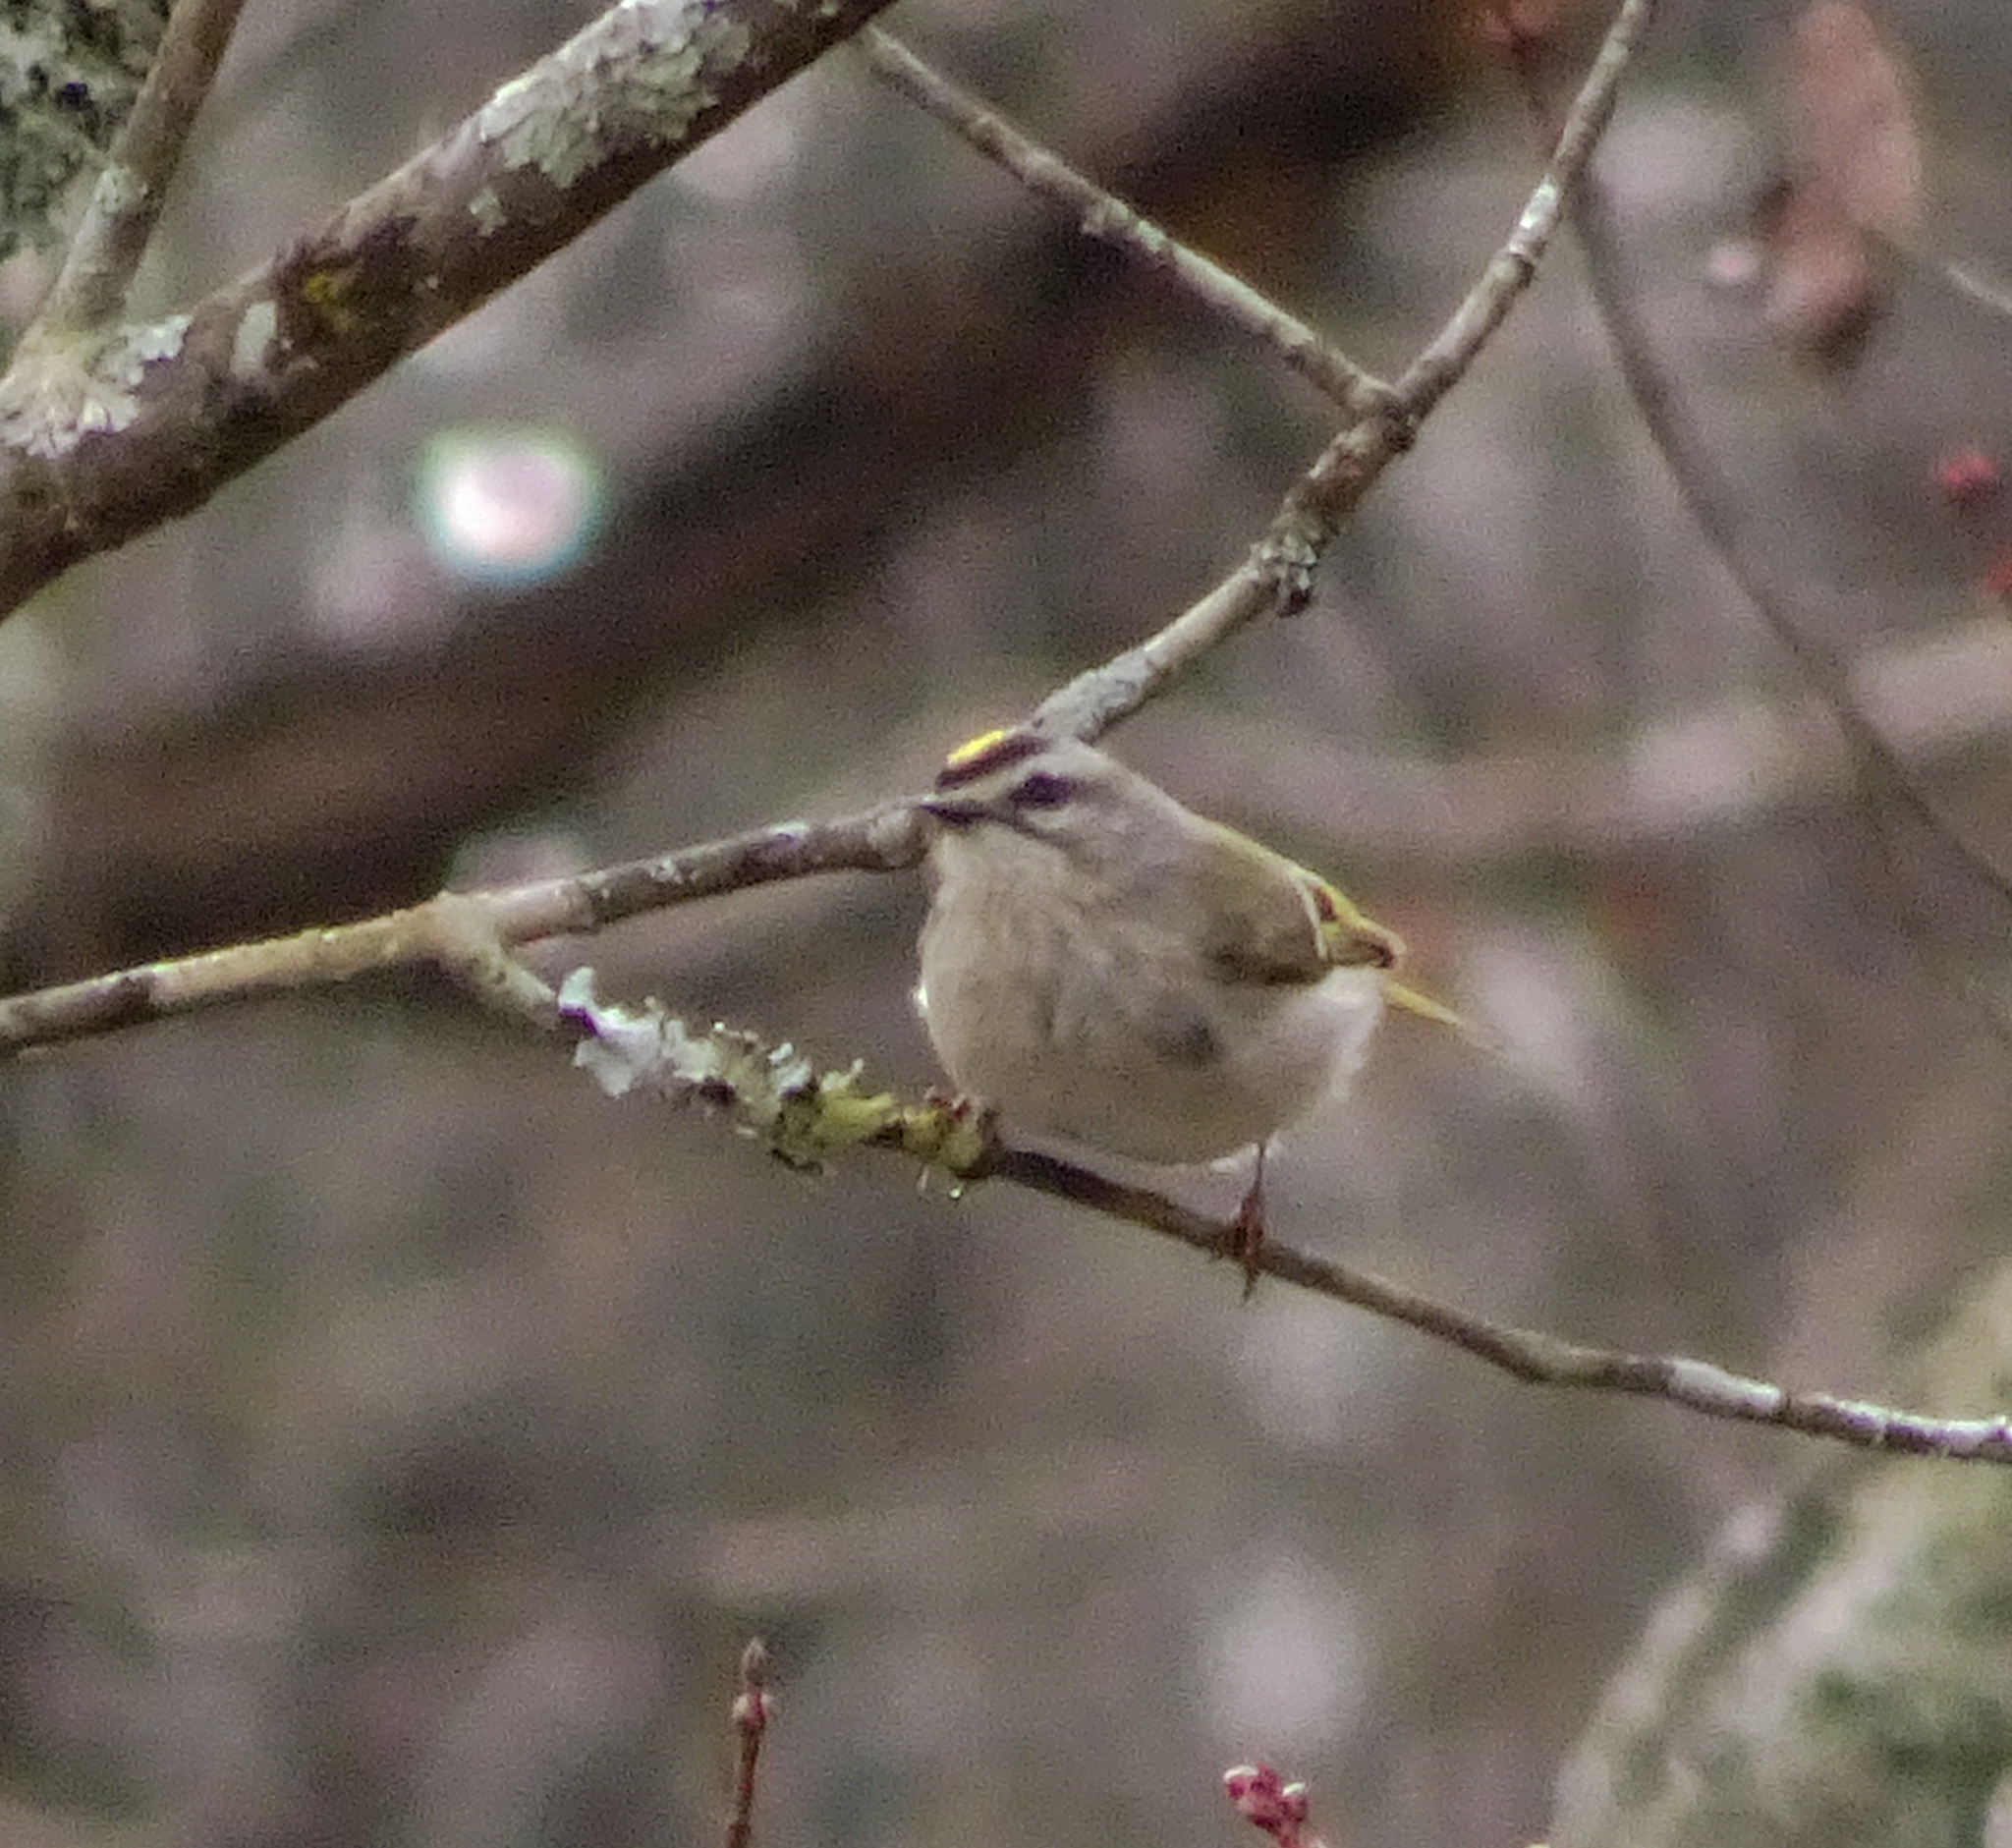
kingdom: Animalia
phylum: Chordata
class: Aves
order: Passeriformes
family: Regulidae
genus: Regulus
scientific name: Regulus satrapa
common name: Golden-crowned kinglet
